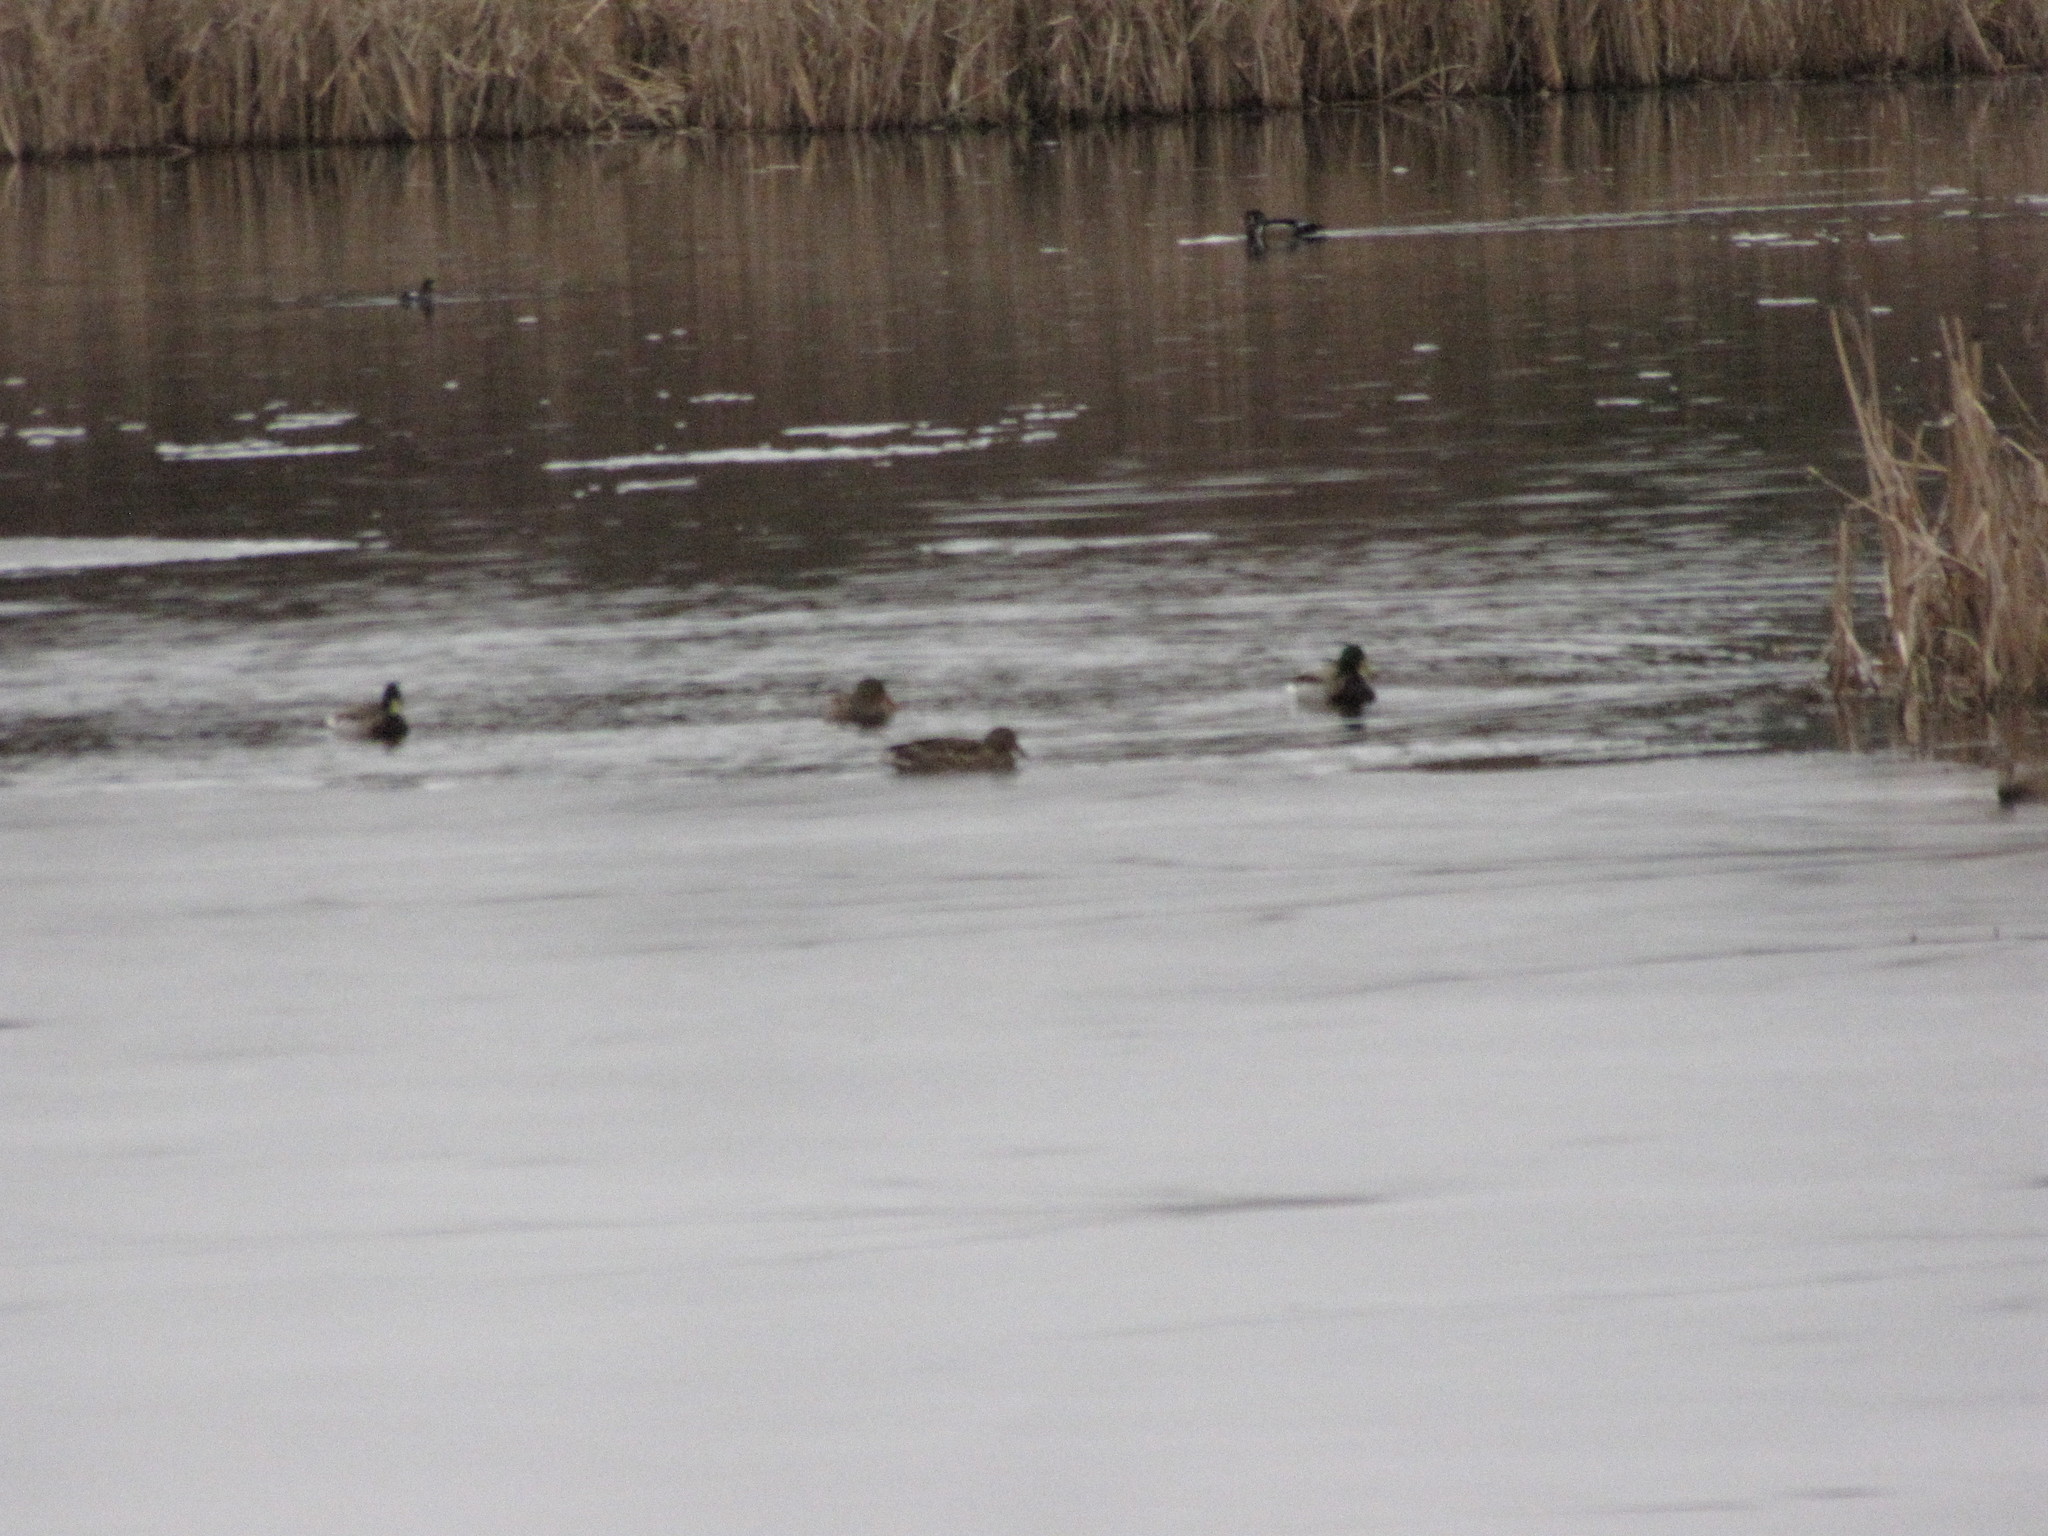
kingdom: Animalia
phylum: Chordata
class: Aves
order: Anseriformes
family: Anatidae
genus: Anas
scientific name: Anas platyrhynchos
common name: Mallard
